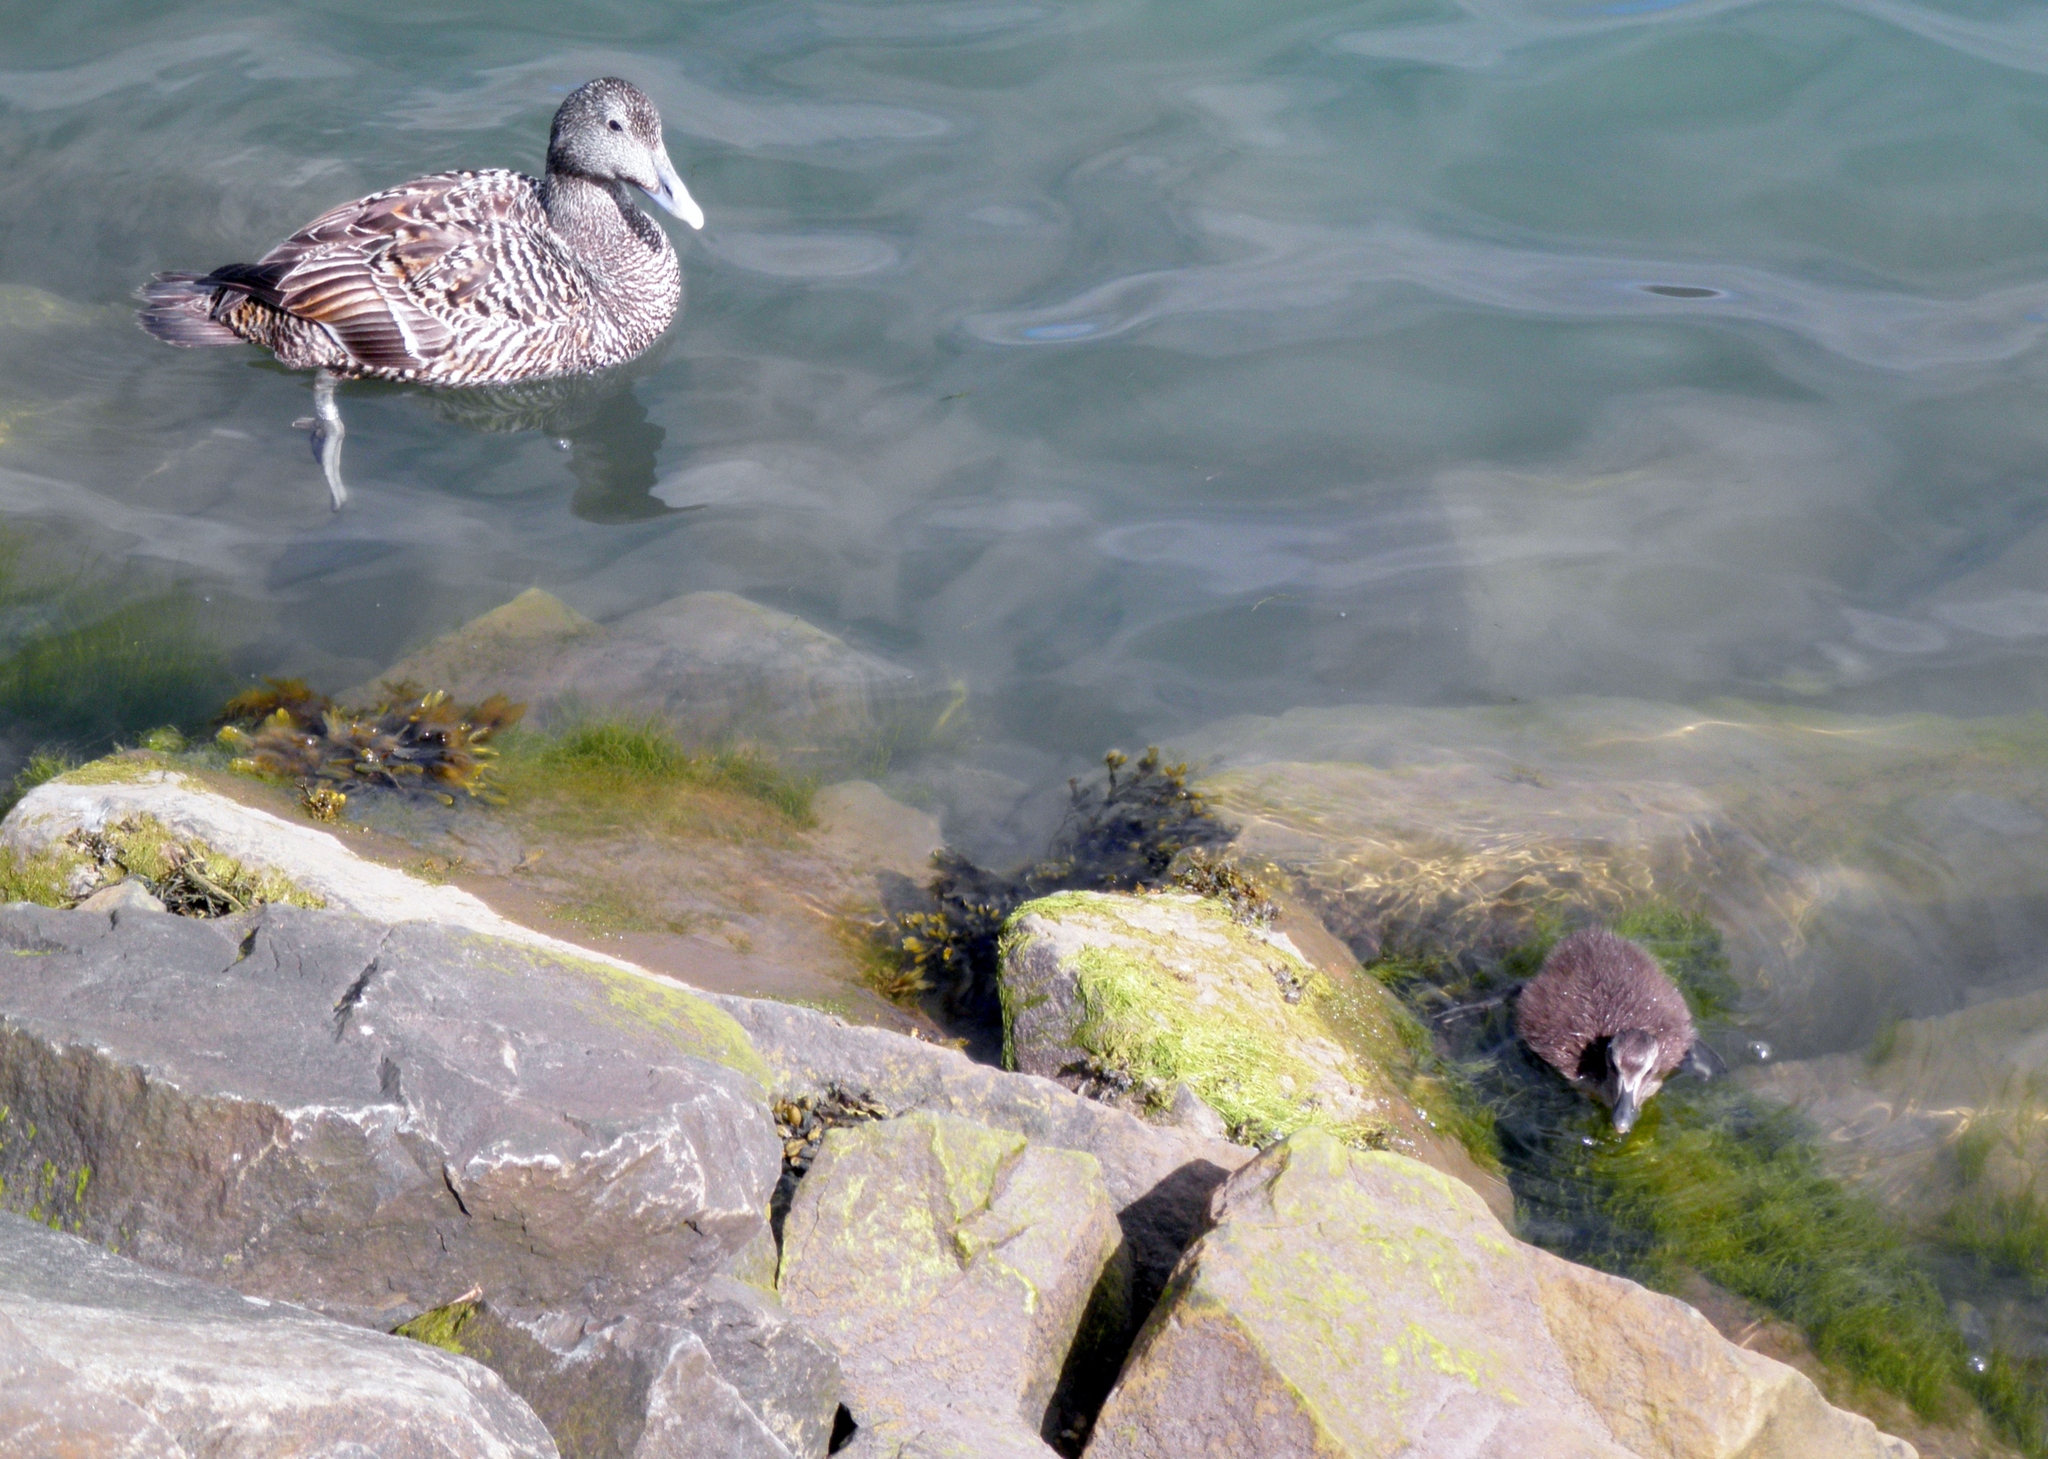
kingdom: Animalia
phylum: Chordata
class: Aves
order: Anseriformes
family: Anatidae
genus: Somateria
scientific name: Somateria mollissima
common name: Common eider
